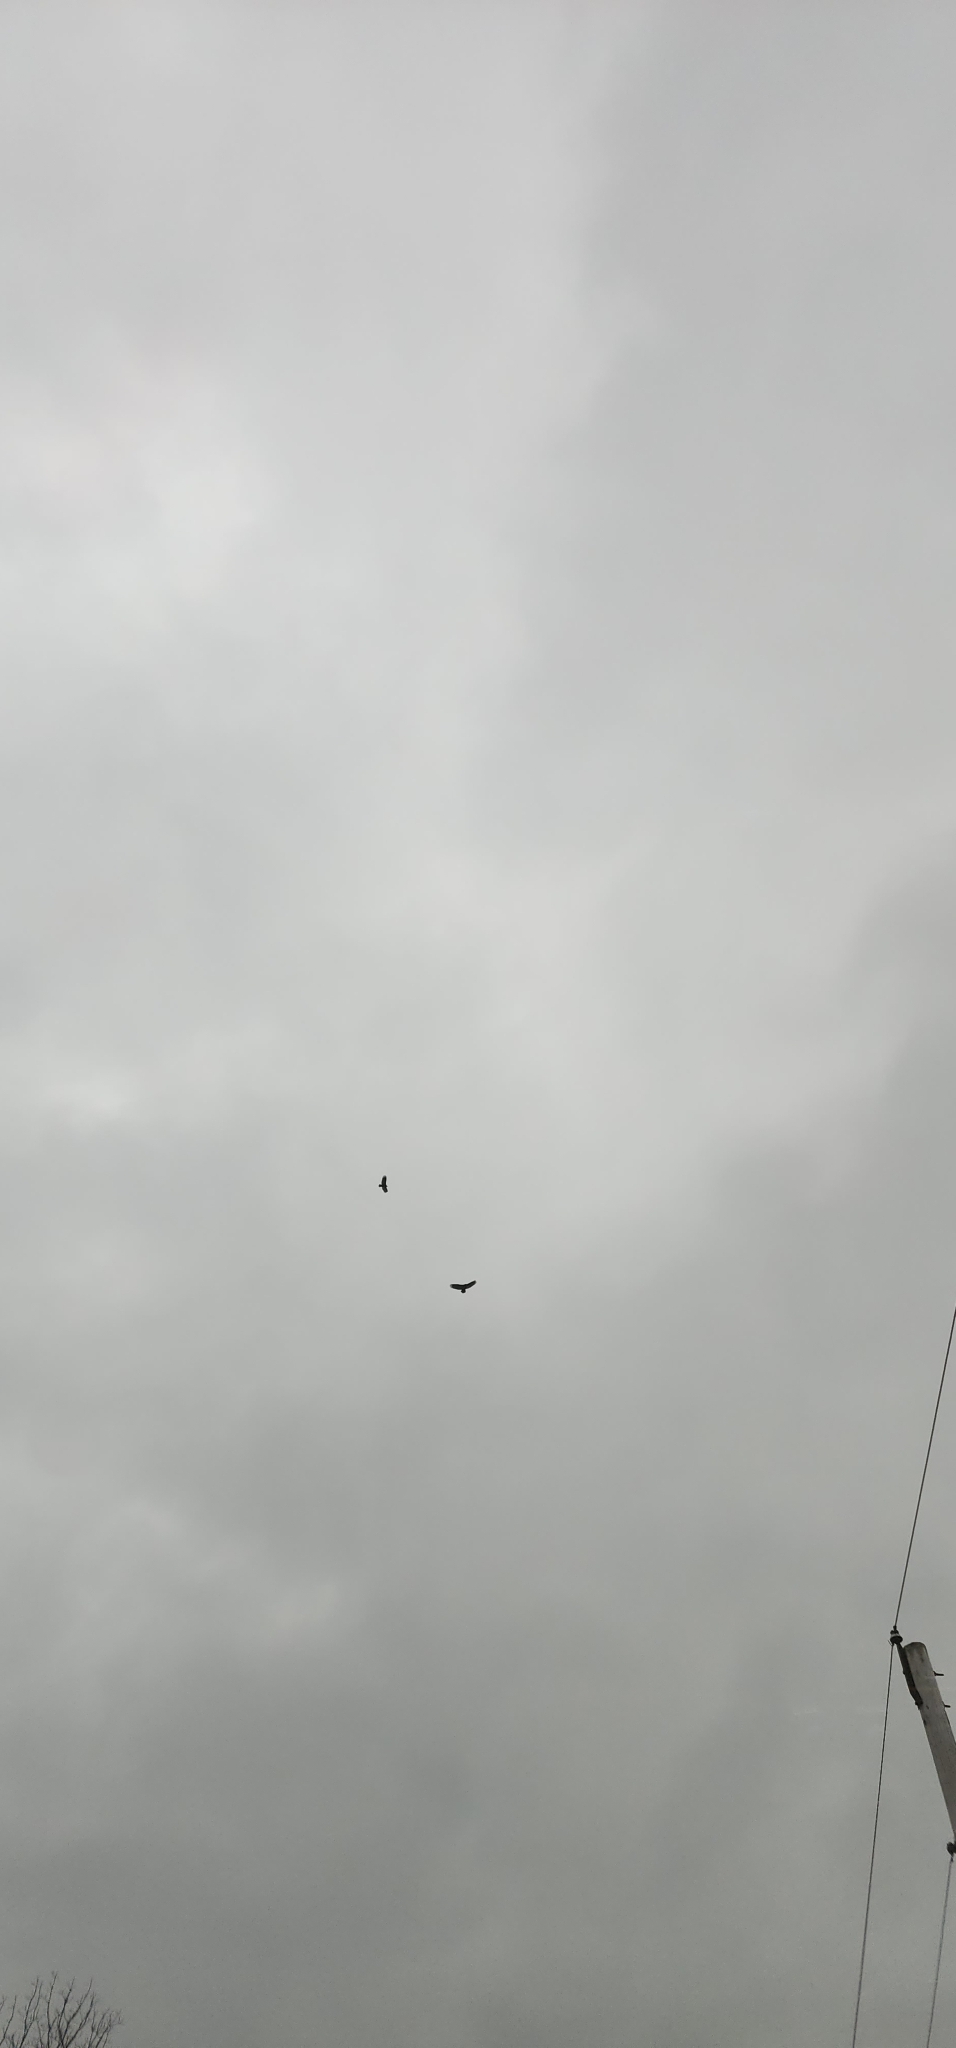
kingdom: Animalia
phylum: Chordata
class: Aves
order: Accipitriformes
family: Accipitridae
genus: Haliaeetus
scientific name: Haliaeetus leucocephalus
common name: Bald eagle
